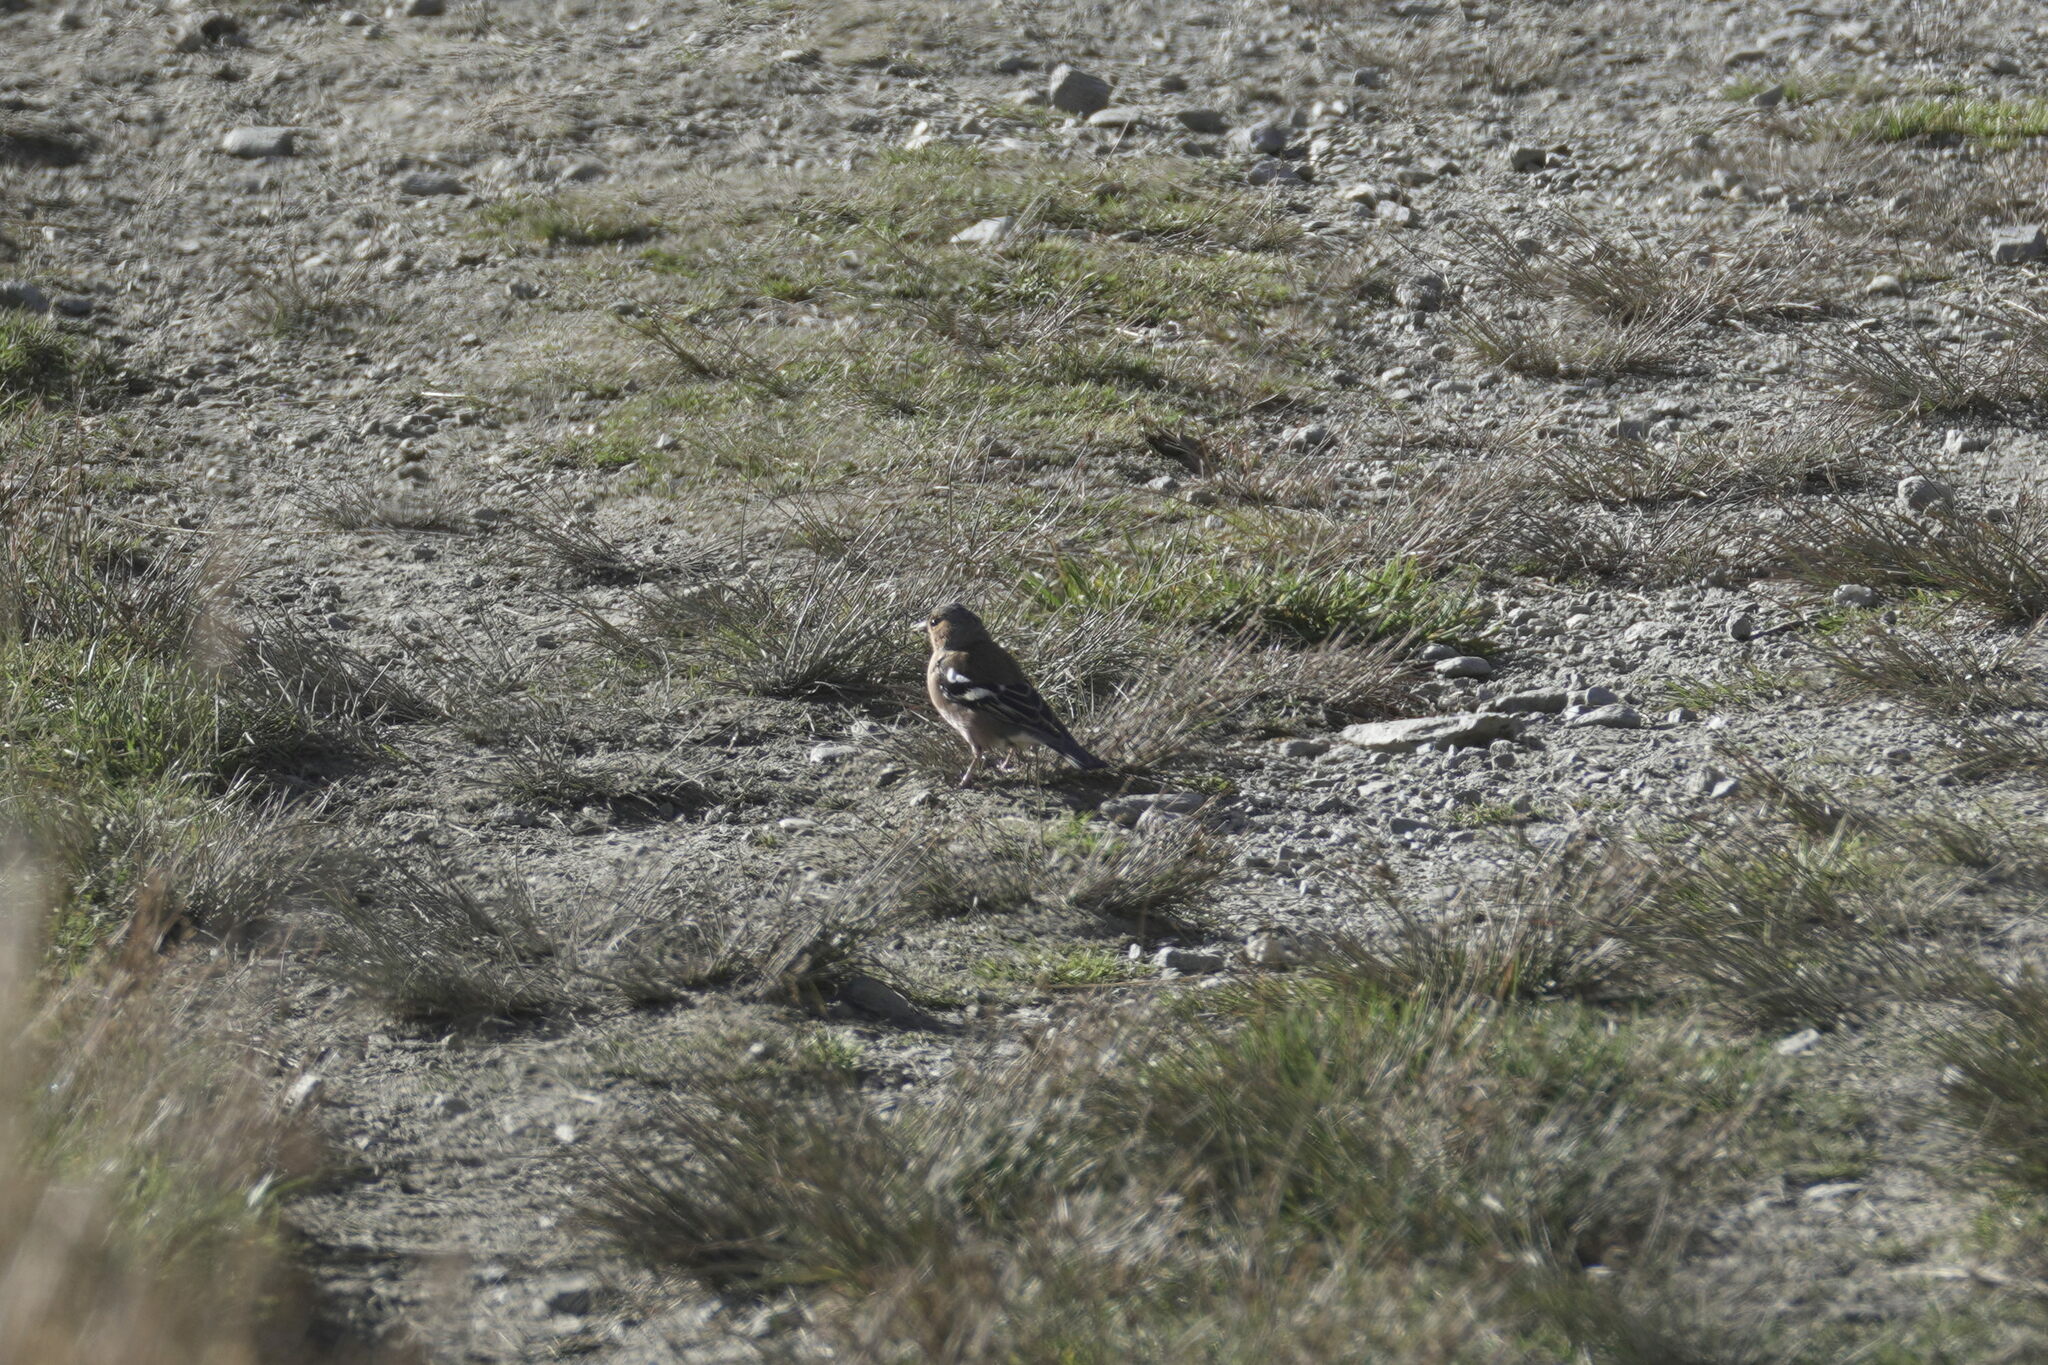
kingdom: Animalia
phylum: Chordata
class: Aves
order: Passeriformes
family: Fringillidae
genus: Fringilla
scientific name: Fringilla coelebs
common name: Common chaffinch
